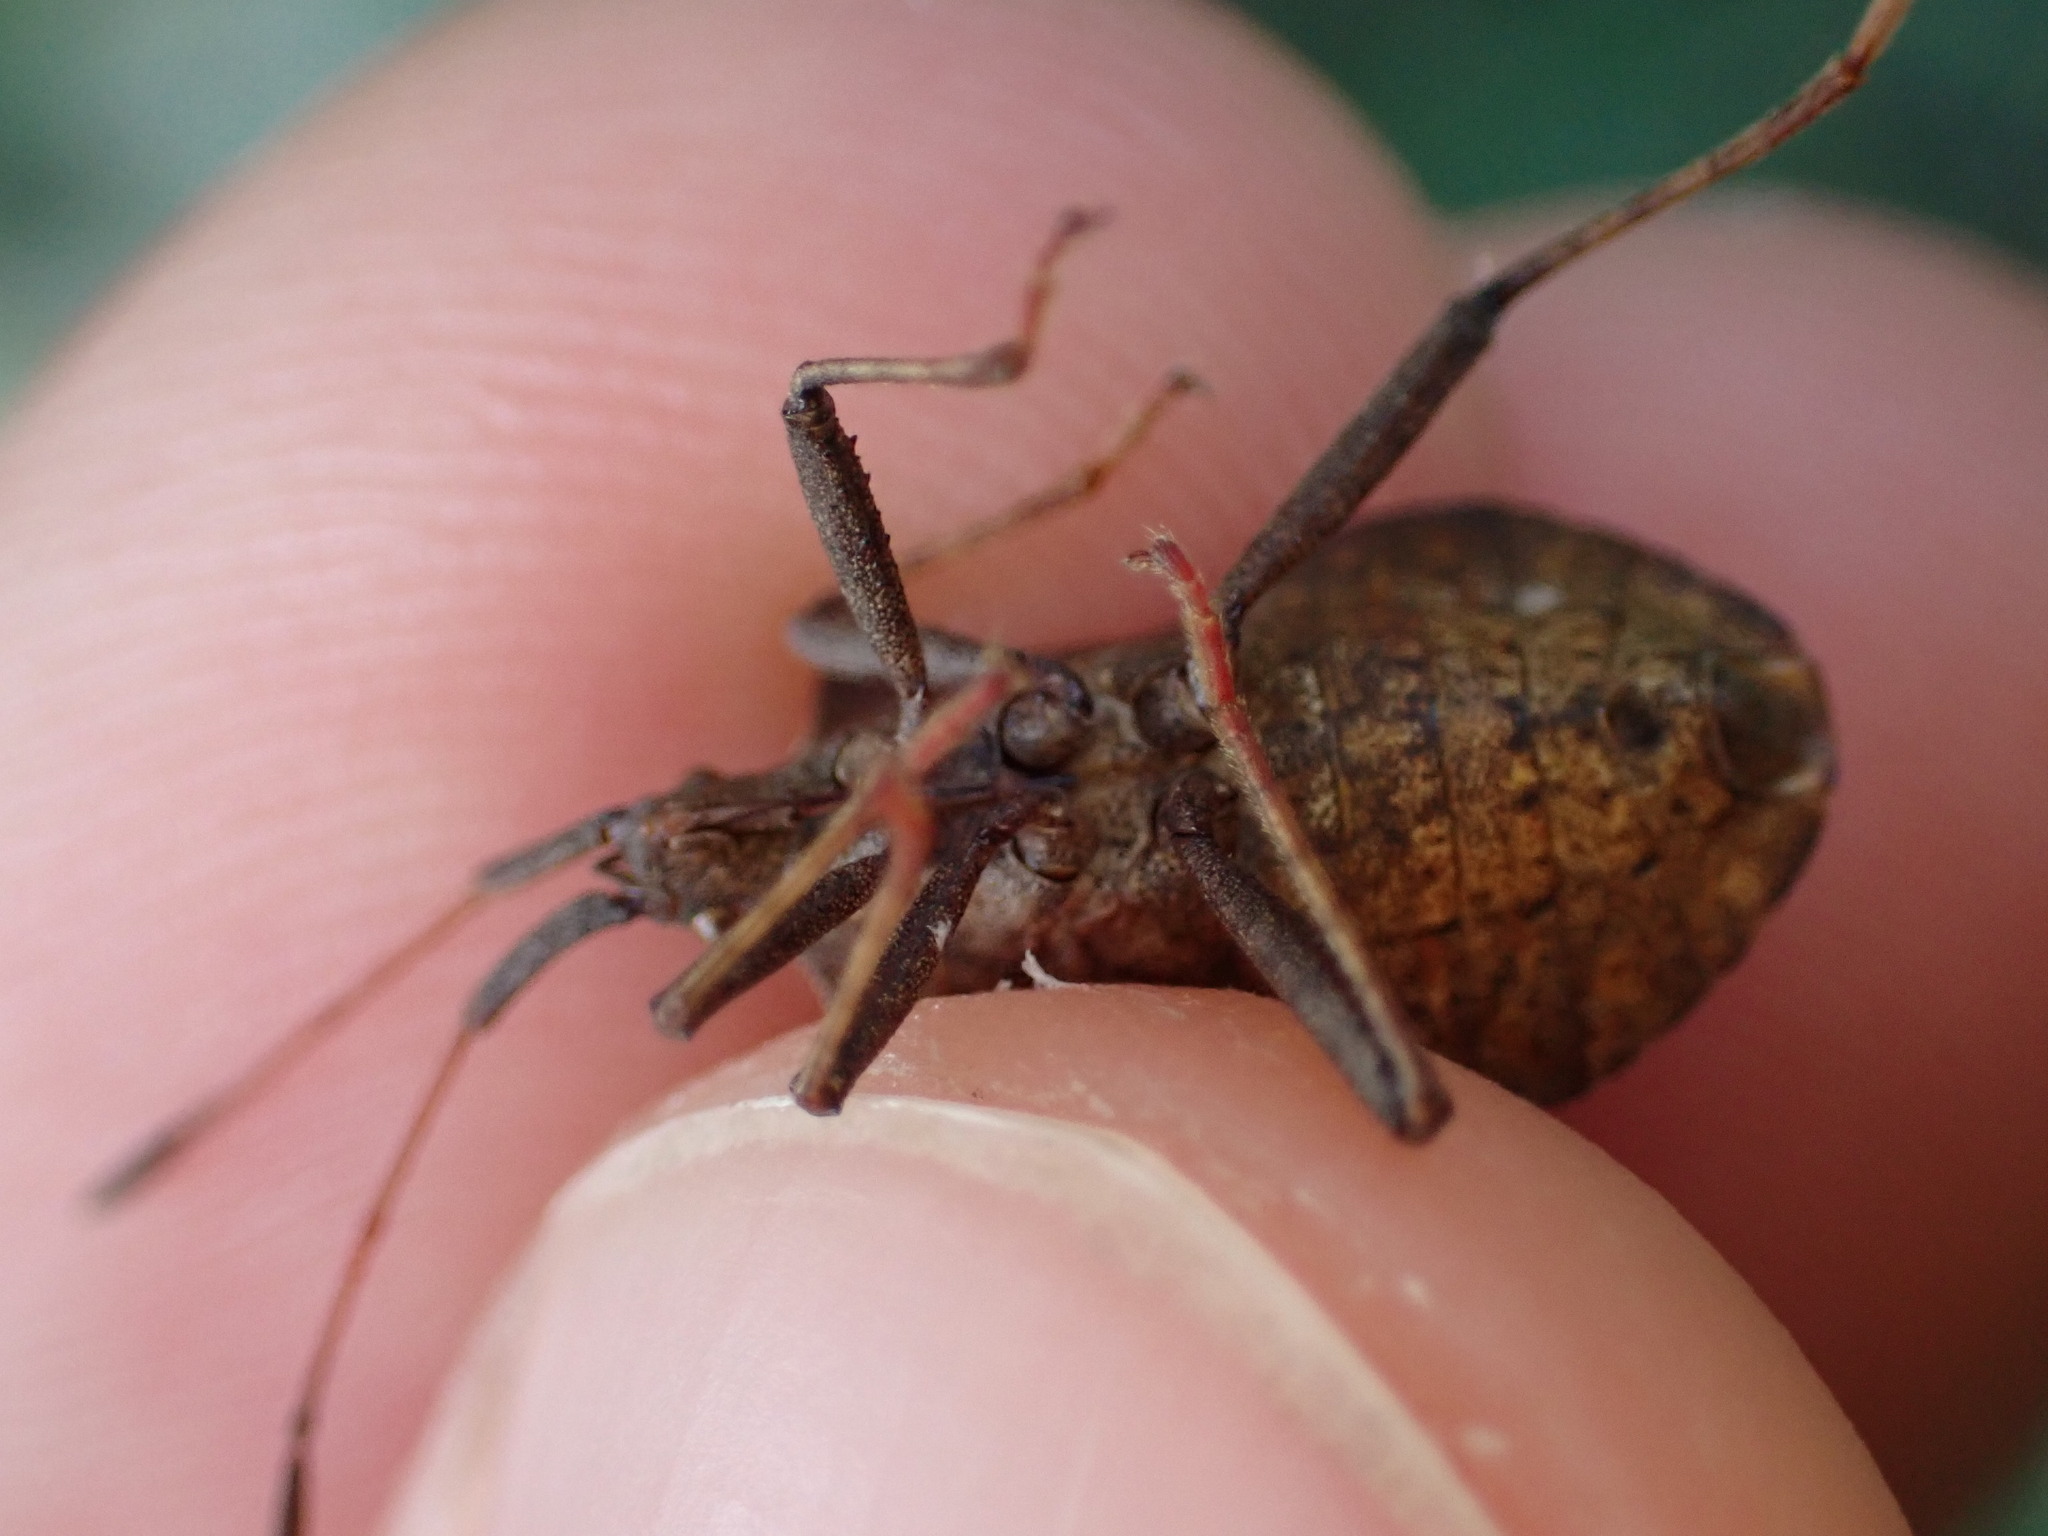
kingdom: Animalia
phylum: Arthropoda
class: Insecta
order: Hemiptera
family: Coreidae
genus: Coreus
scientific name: Coreus marginatus
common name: Dock bug
